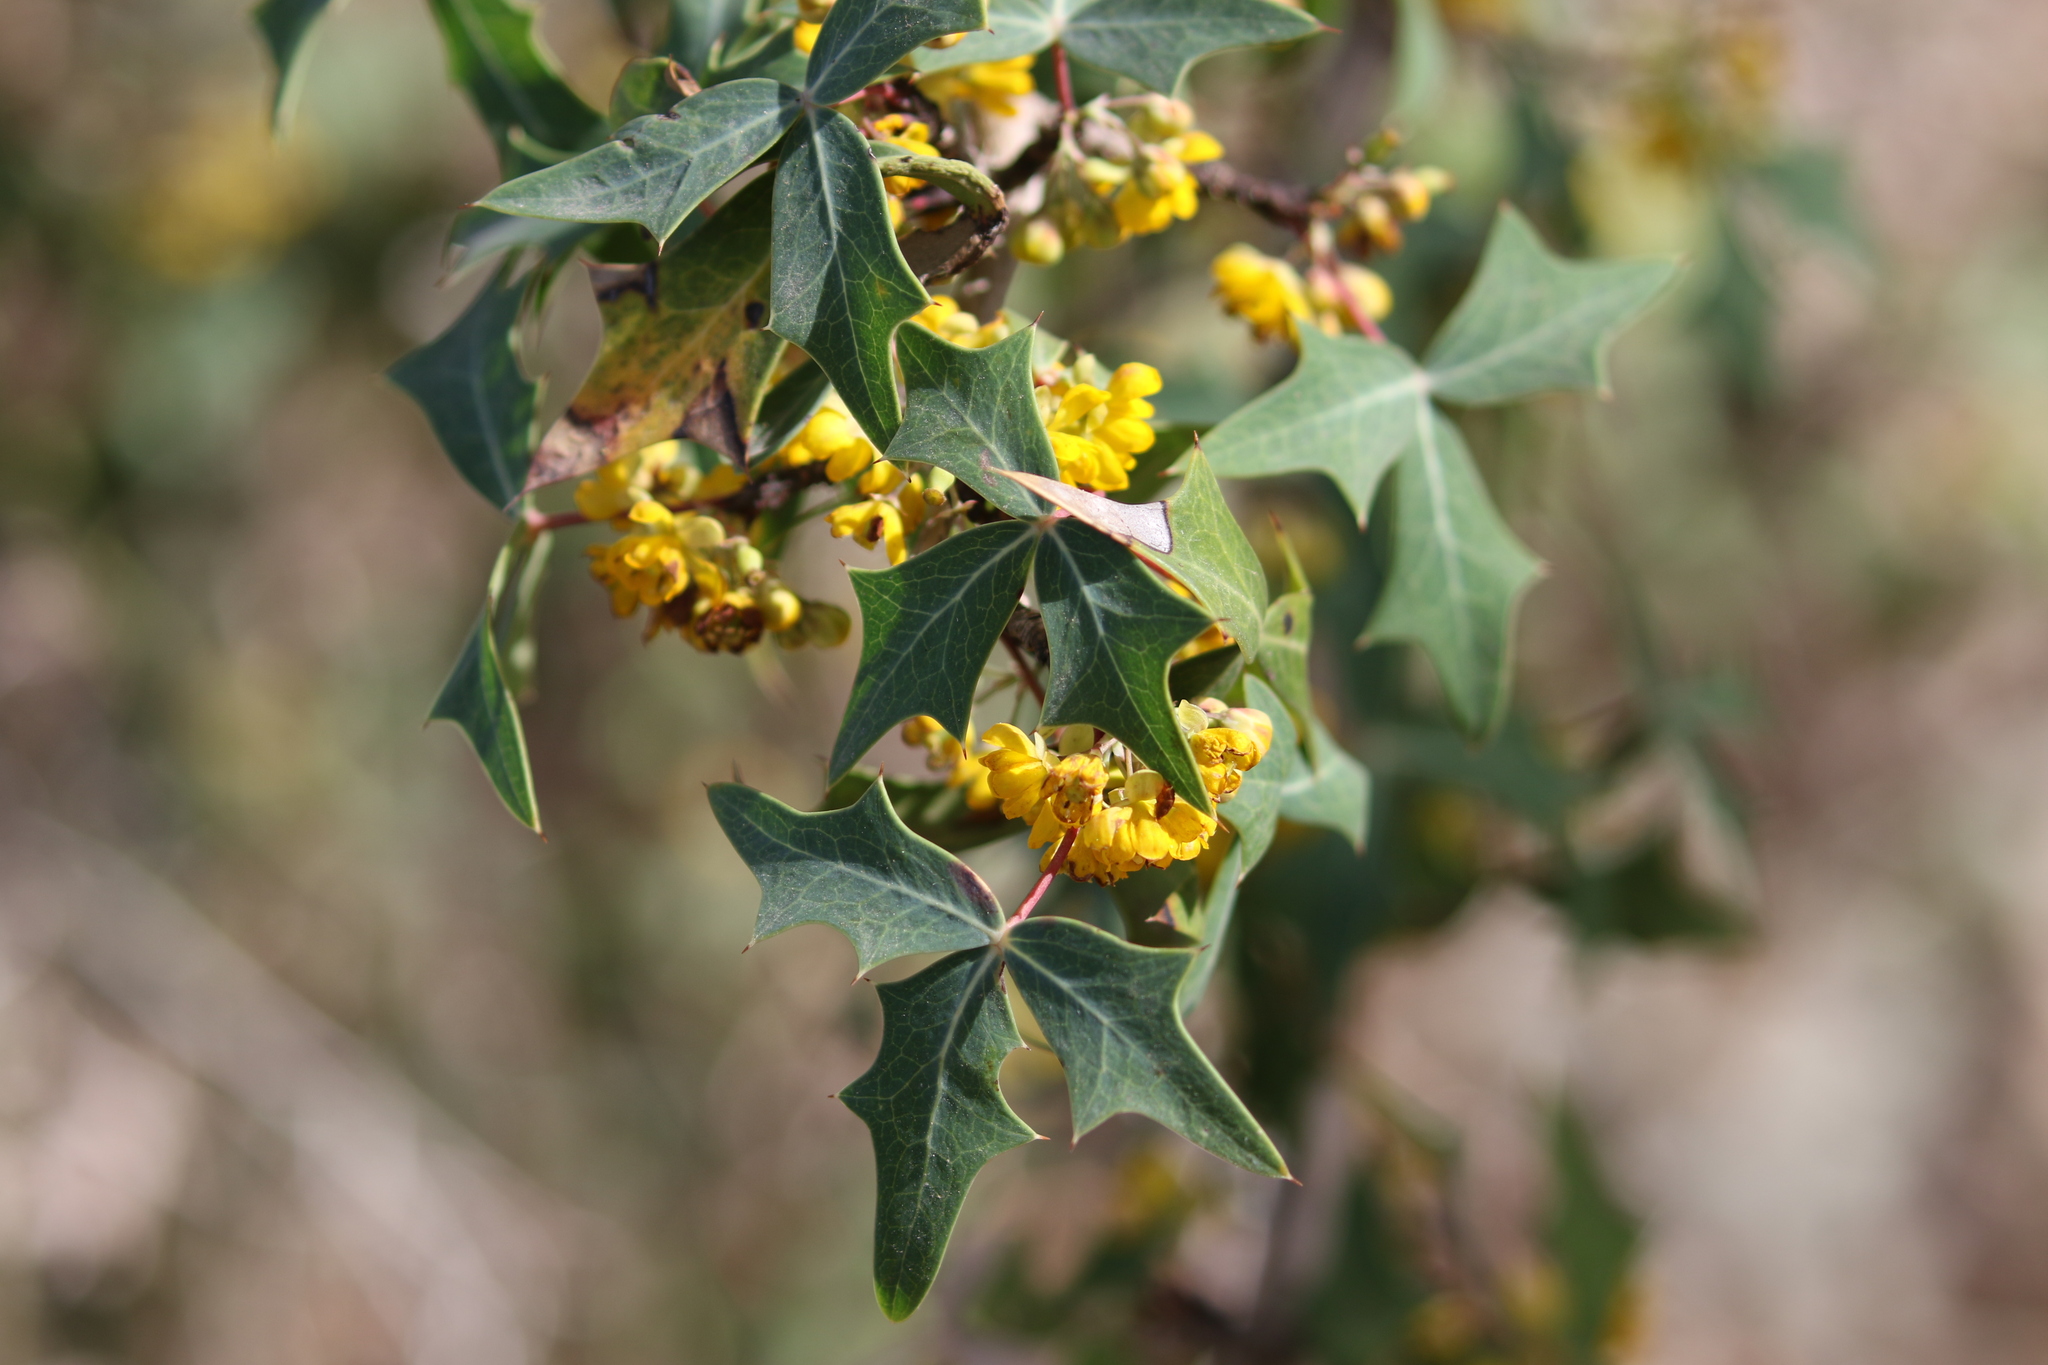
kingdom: Plantae
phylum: Tracheophyta
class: Magnoliopsida
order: Ranunculales
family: Berberidaceae
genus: Alloberberis
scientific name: Alloberberis trifoliolata
